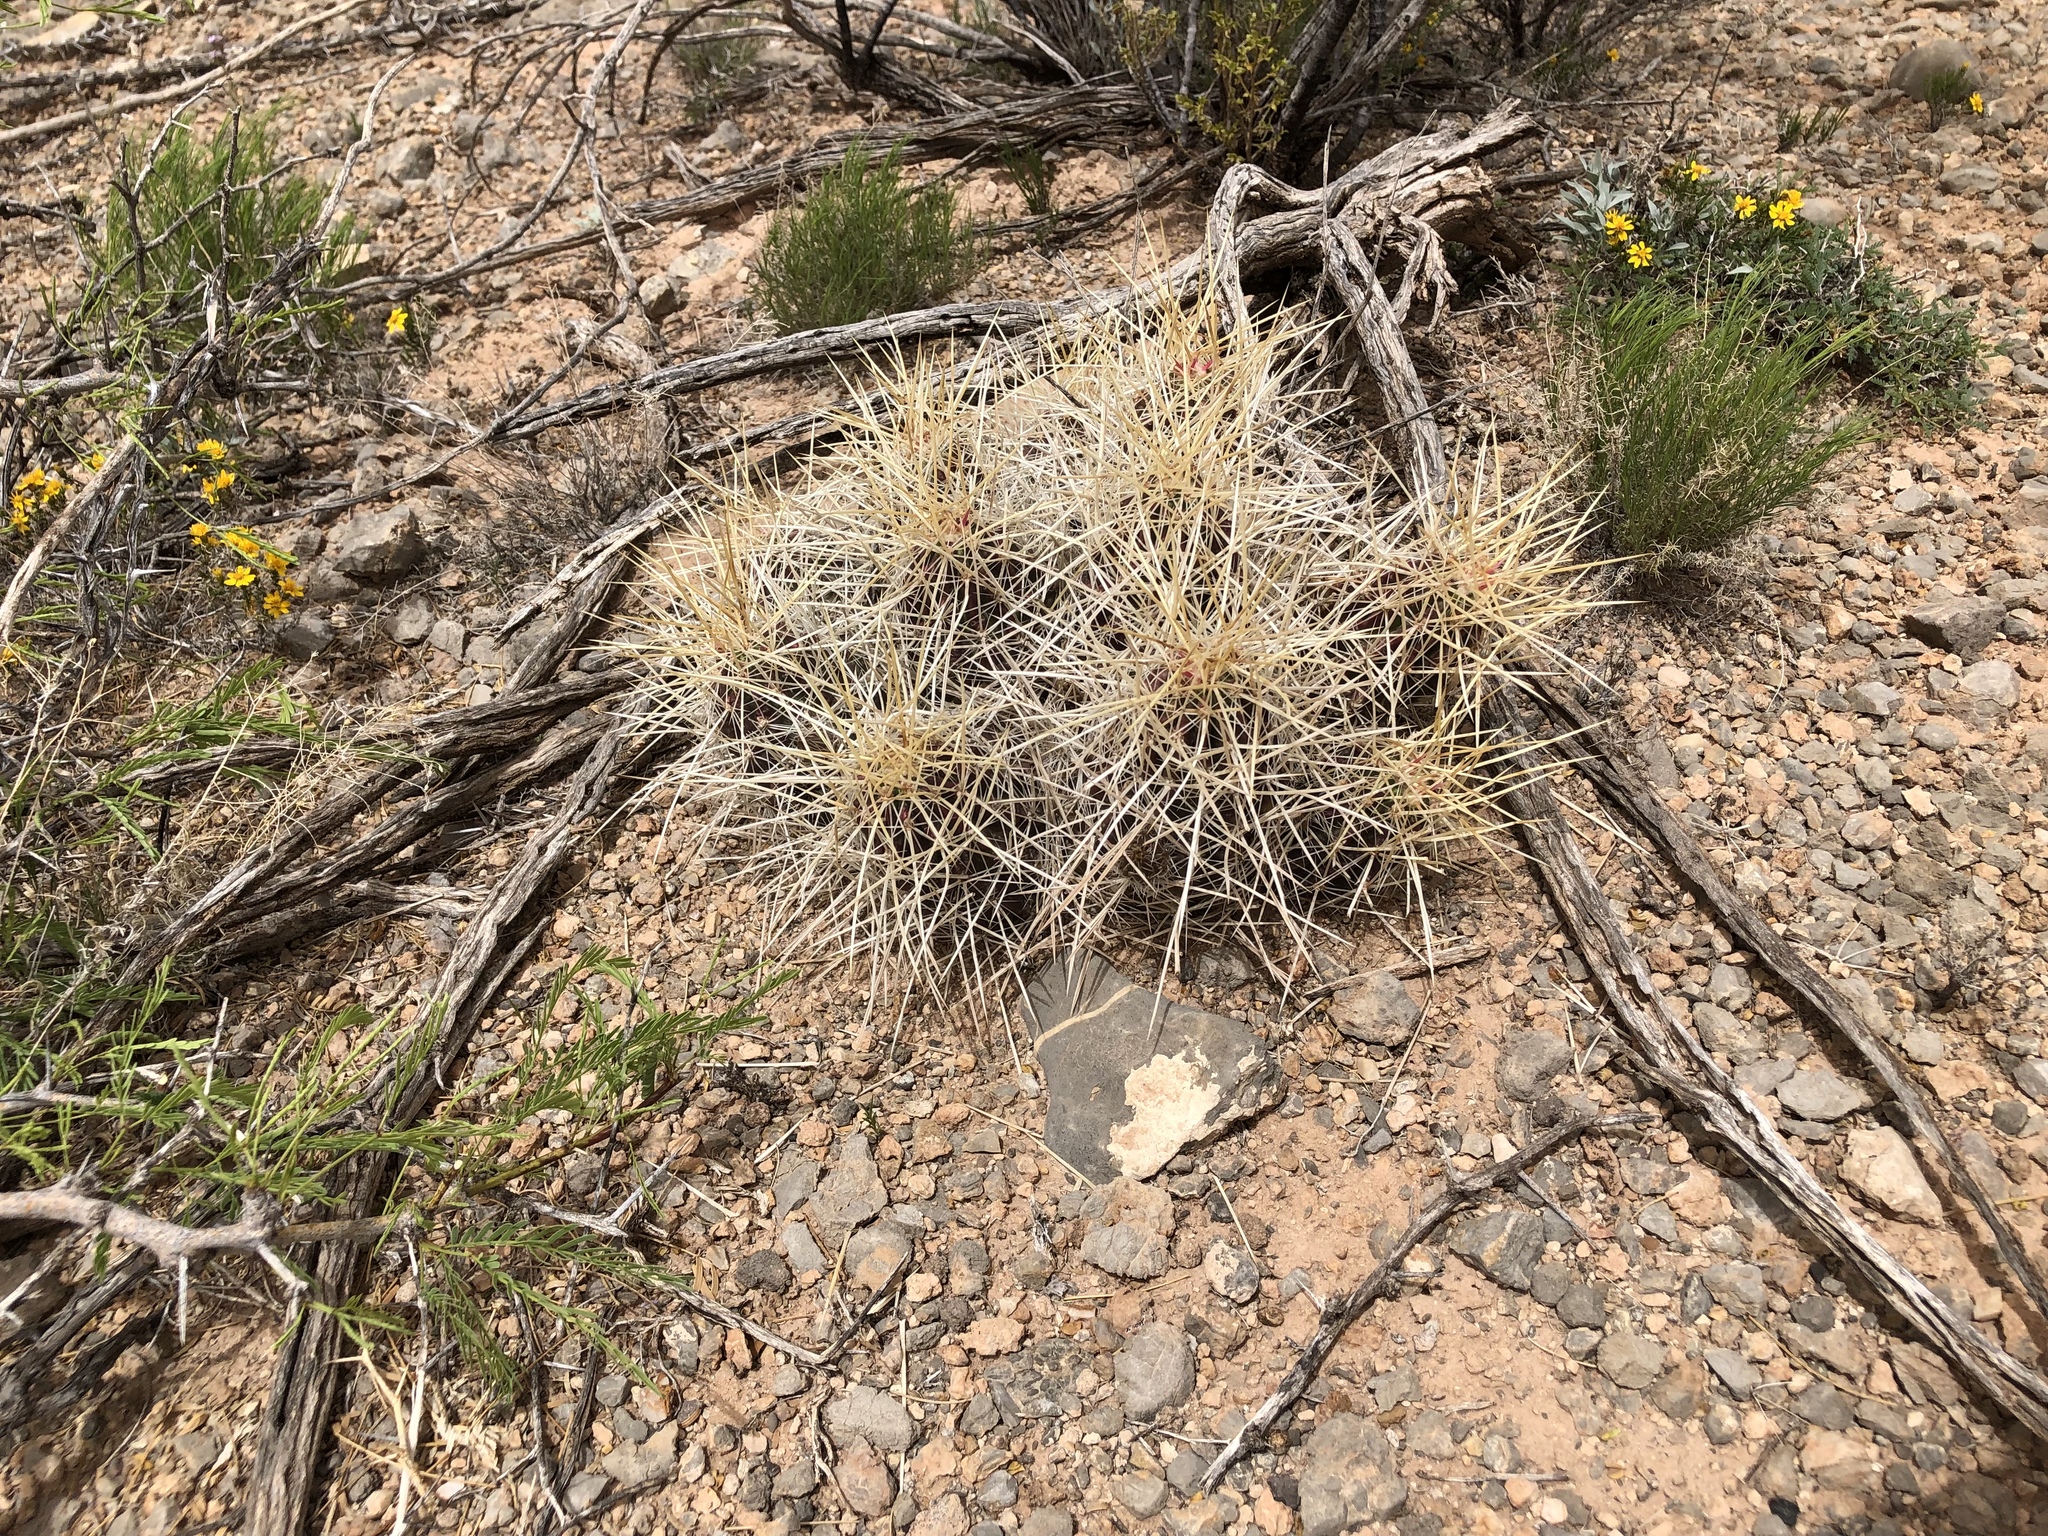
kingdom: Plantae
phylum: Tracheophyta
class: Magnoliopsida
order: Caryophyllales
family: Cactaceae
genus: Echinocereus
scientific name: Echinocereus stramineus
